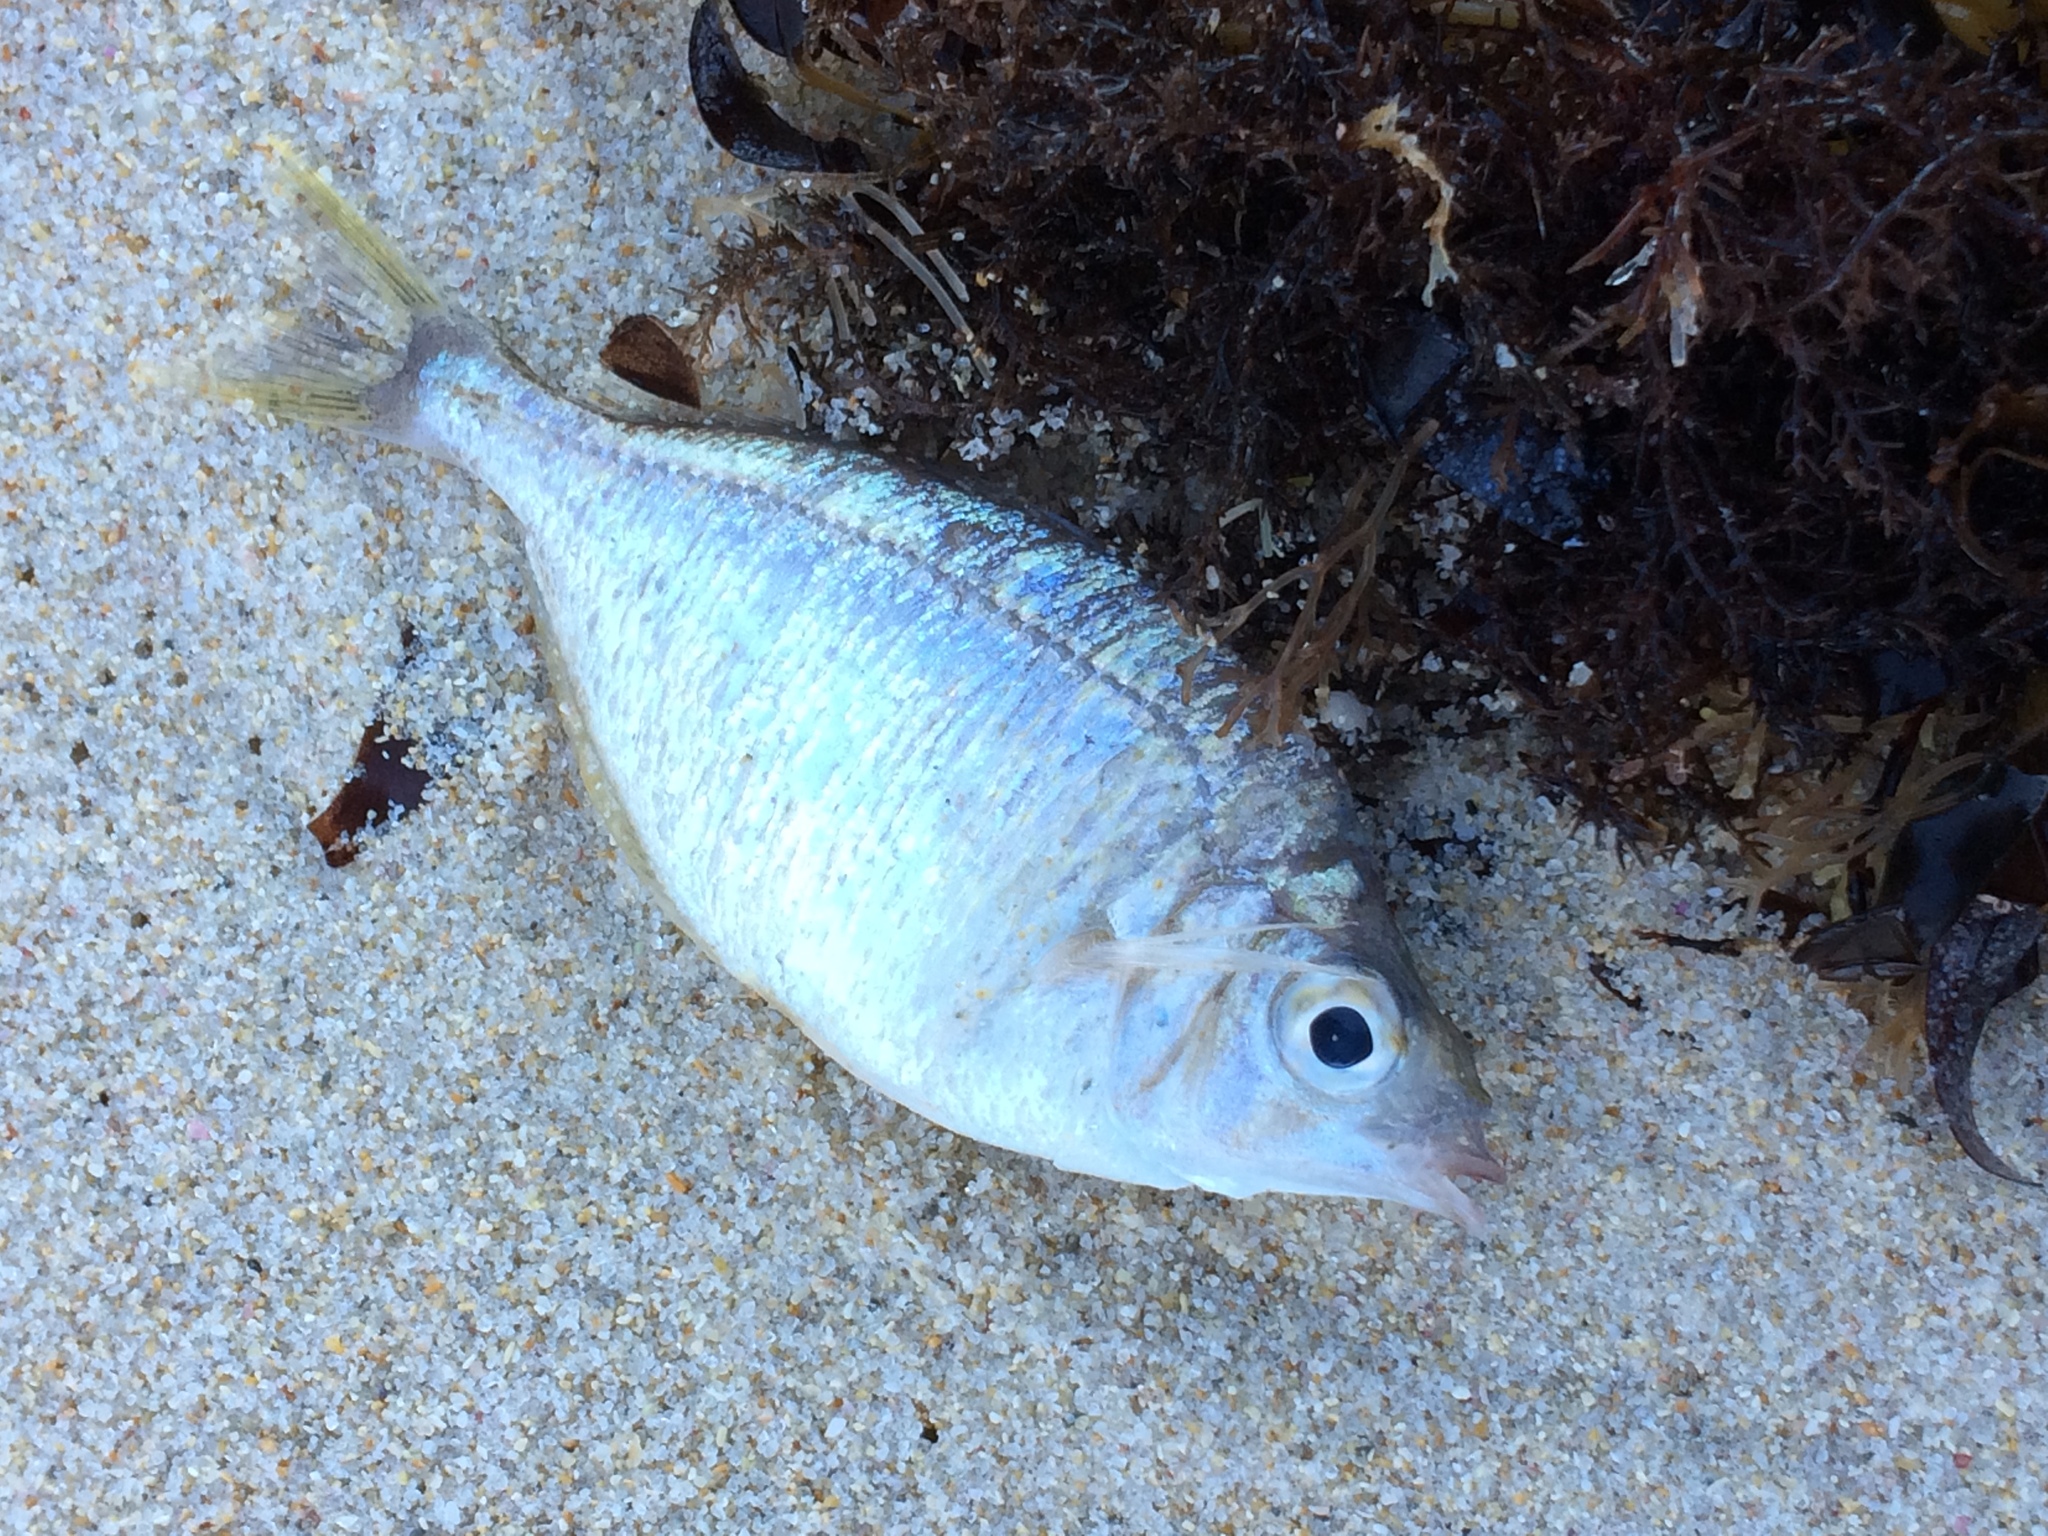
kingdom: Animalia
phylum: Chordata
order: Perciformes
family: Gerreidae
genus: Parequula
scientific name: Parequula melbournensis
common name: Silverbelly
